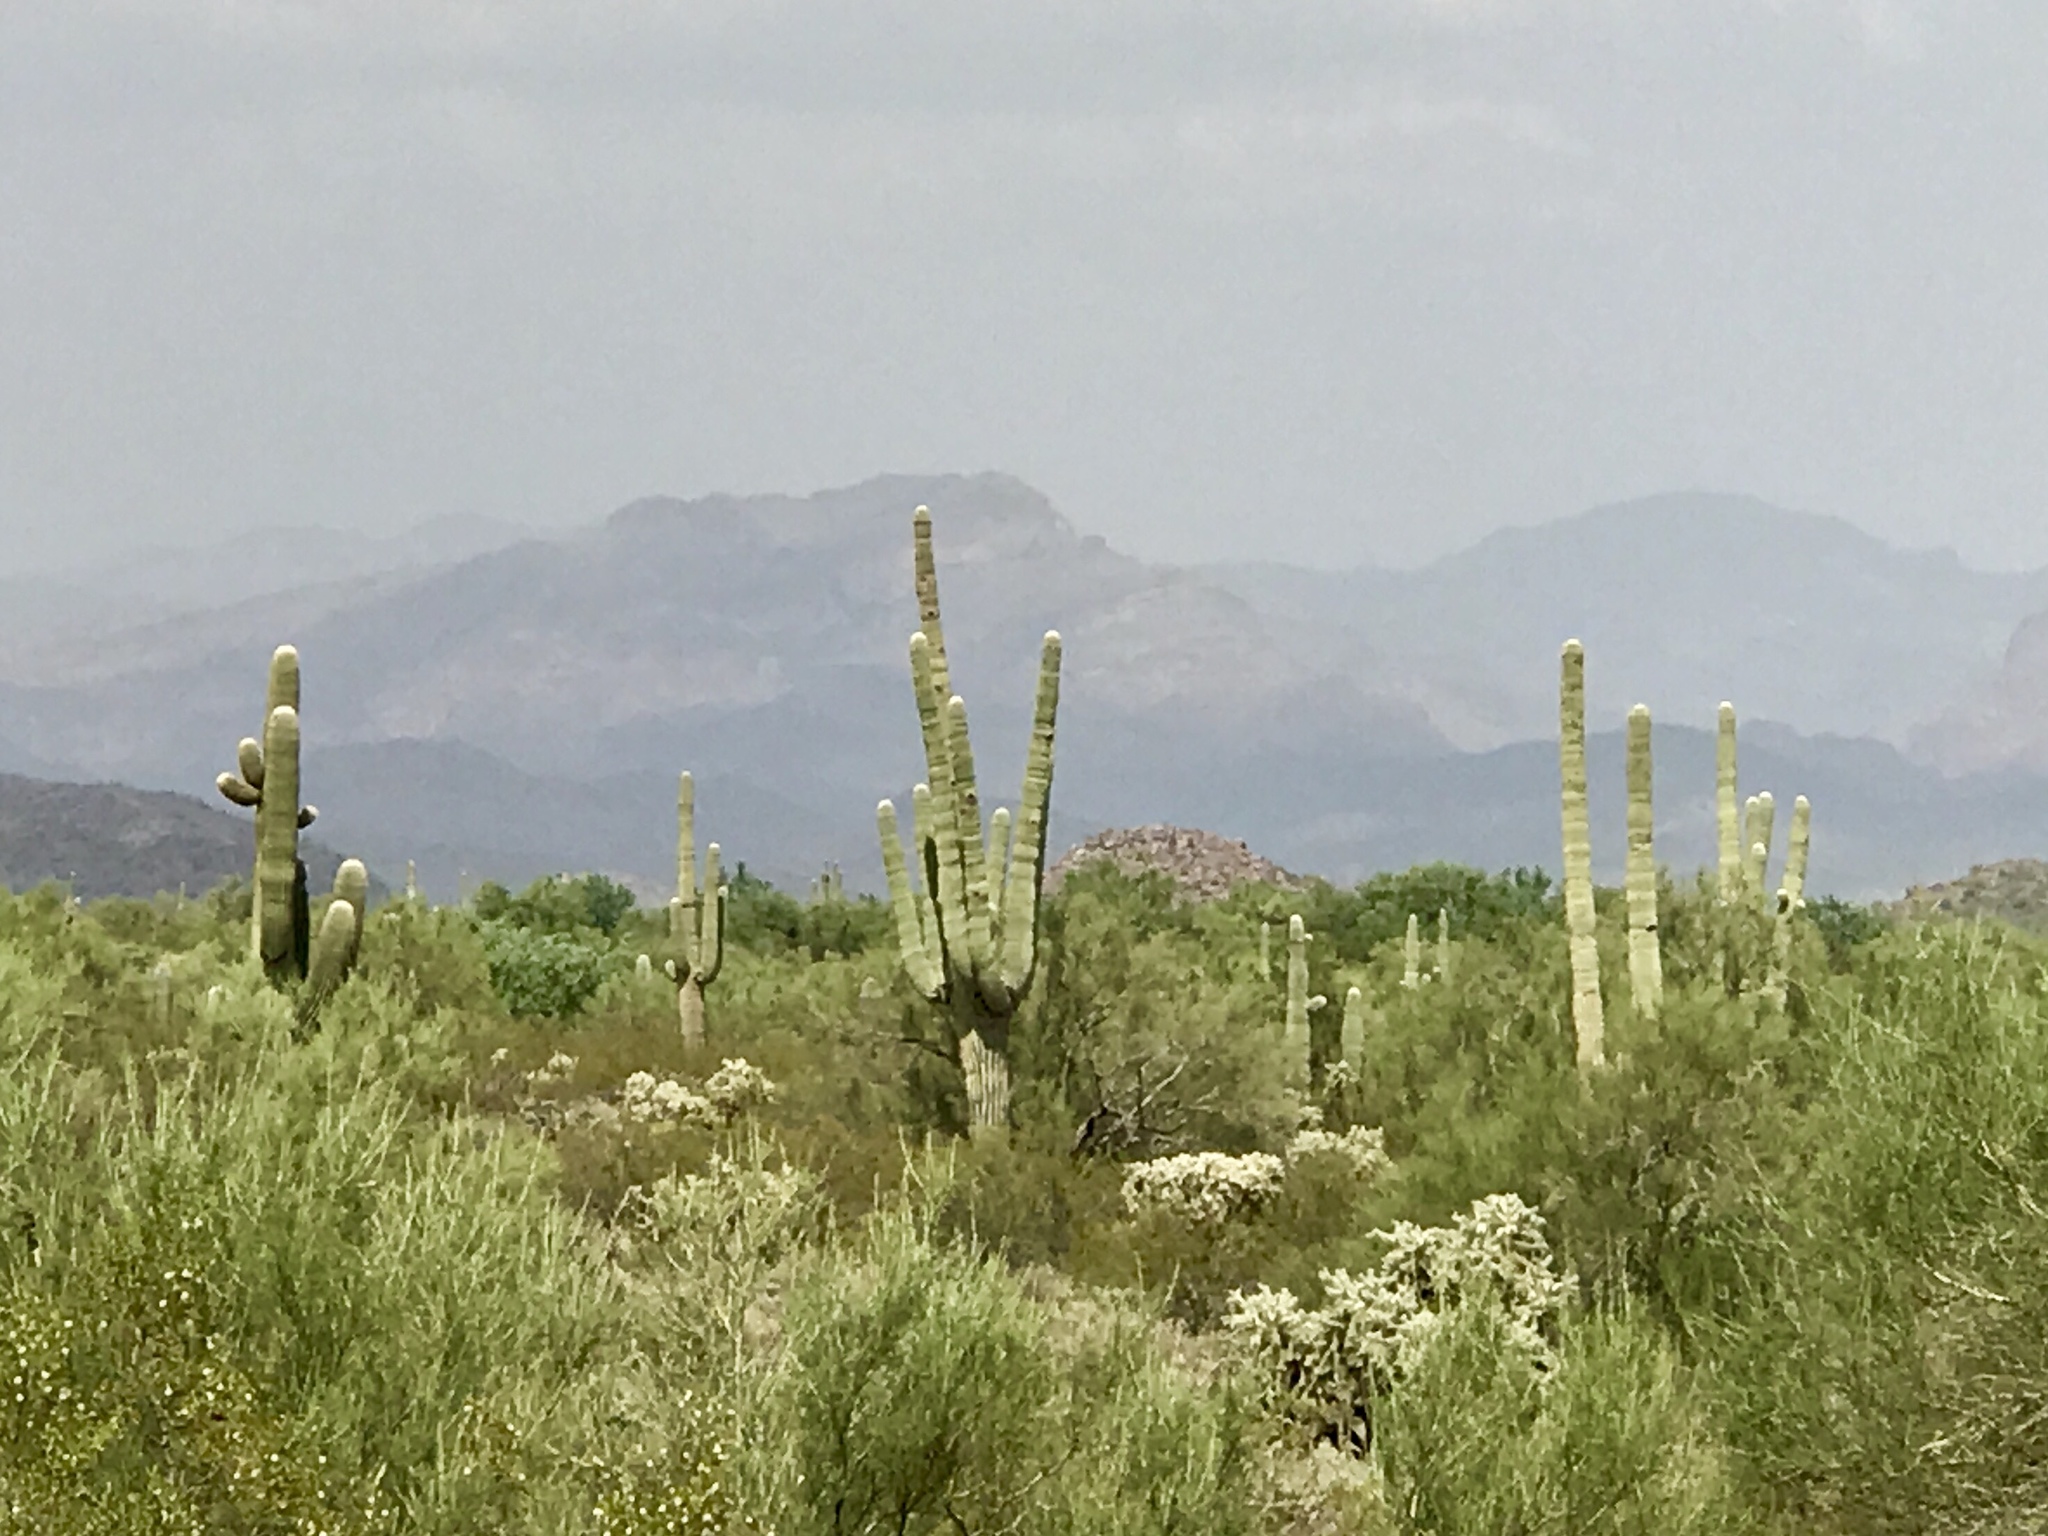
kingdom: Plantae
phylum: Tracheophyta
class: Magnoliopsida
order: Caryophyllales
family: Cactaceae
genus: Carnegiea
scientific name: Carnegiea gigantea
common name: Saguaro
